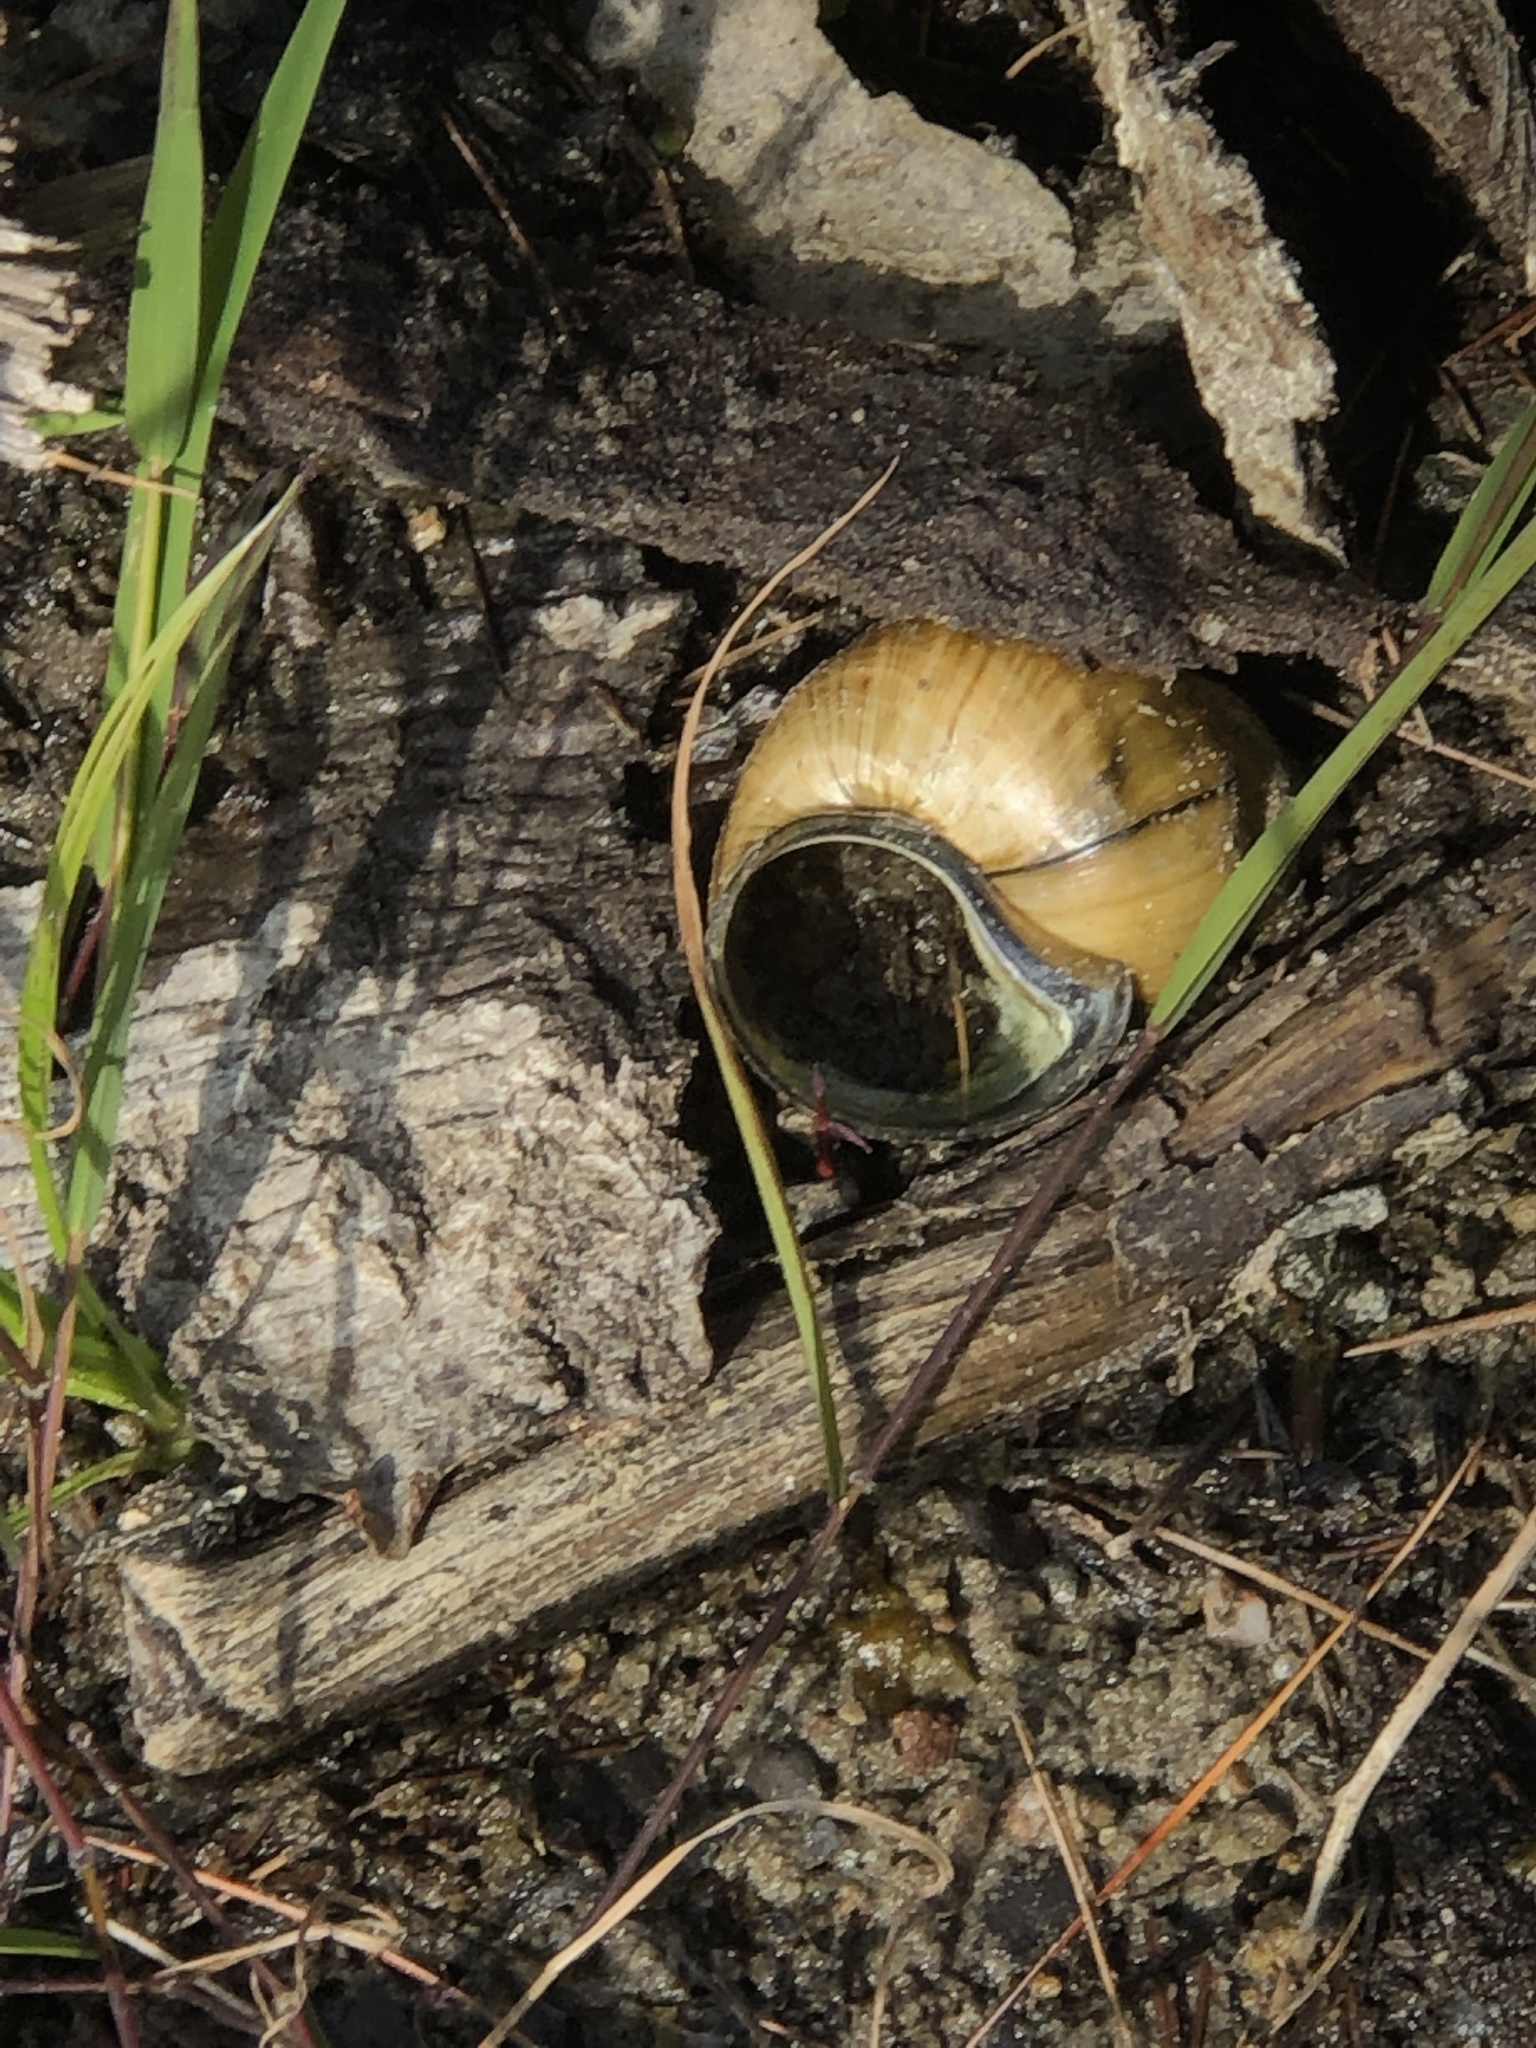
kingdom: Animalia
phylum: Mollusca
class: Gastropoda
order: Architaenioglossa
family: Viviparidae
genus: Cipangopaludina
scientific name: Cipangopaludina chinensis
